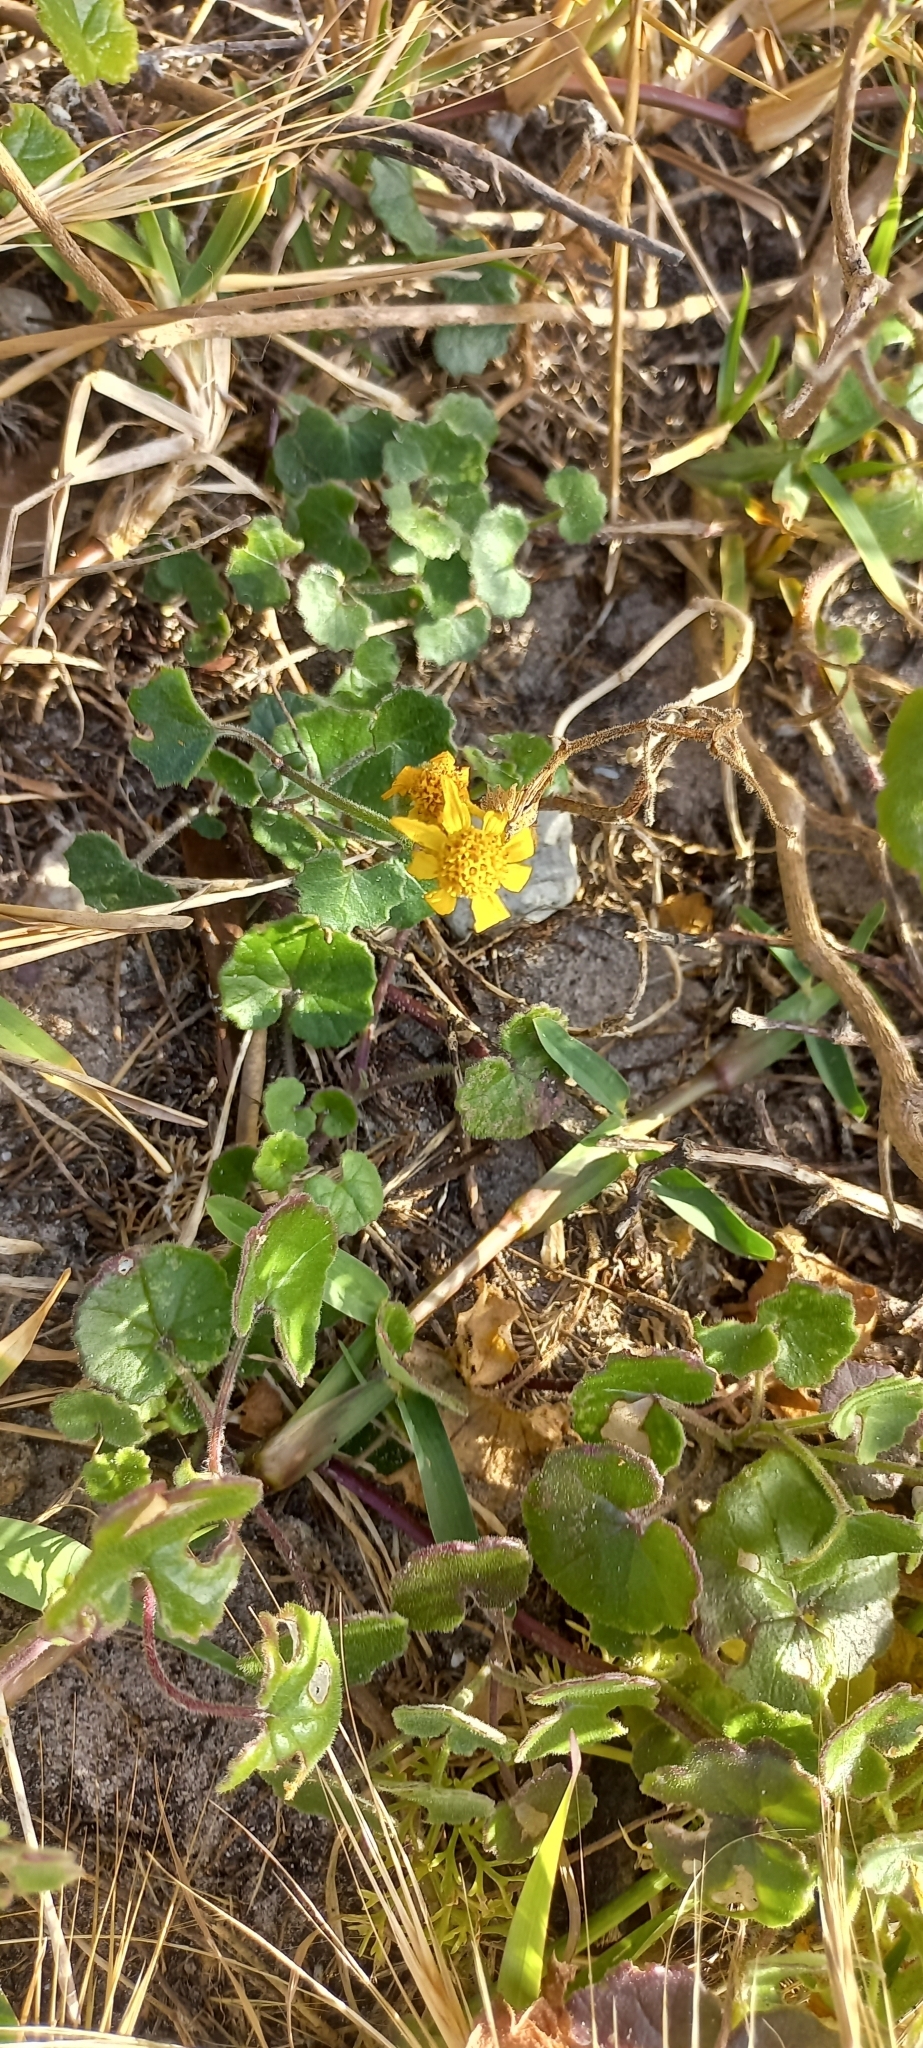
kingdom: Plantae
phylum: Tracheophyta
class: Magnoliopsida
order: Asterales
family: Asteraceae
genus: Cineraria
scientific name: Cineraria geifolia
